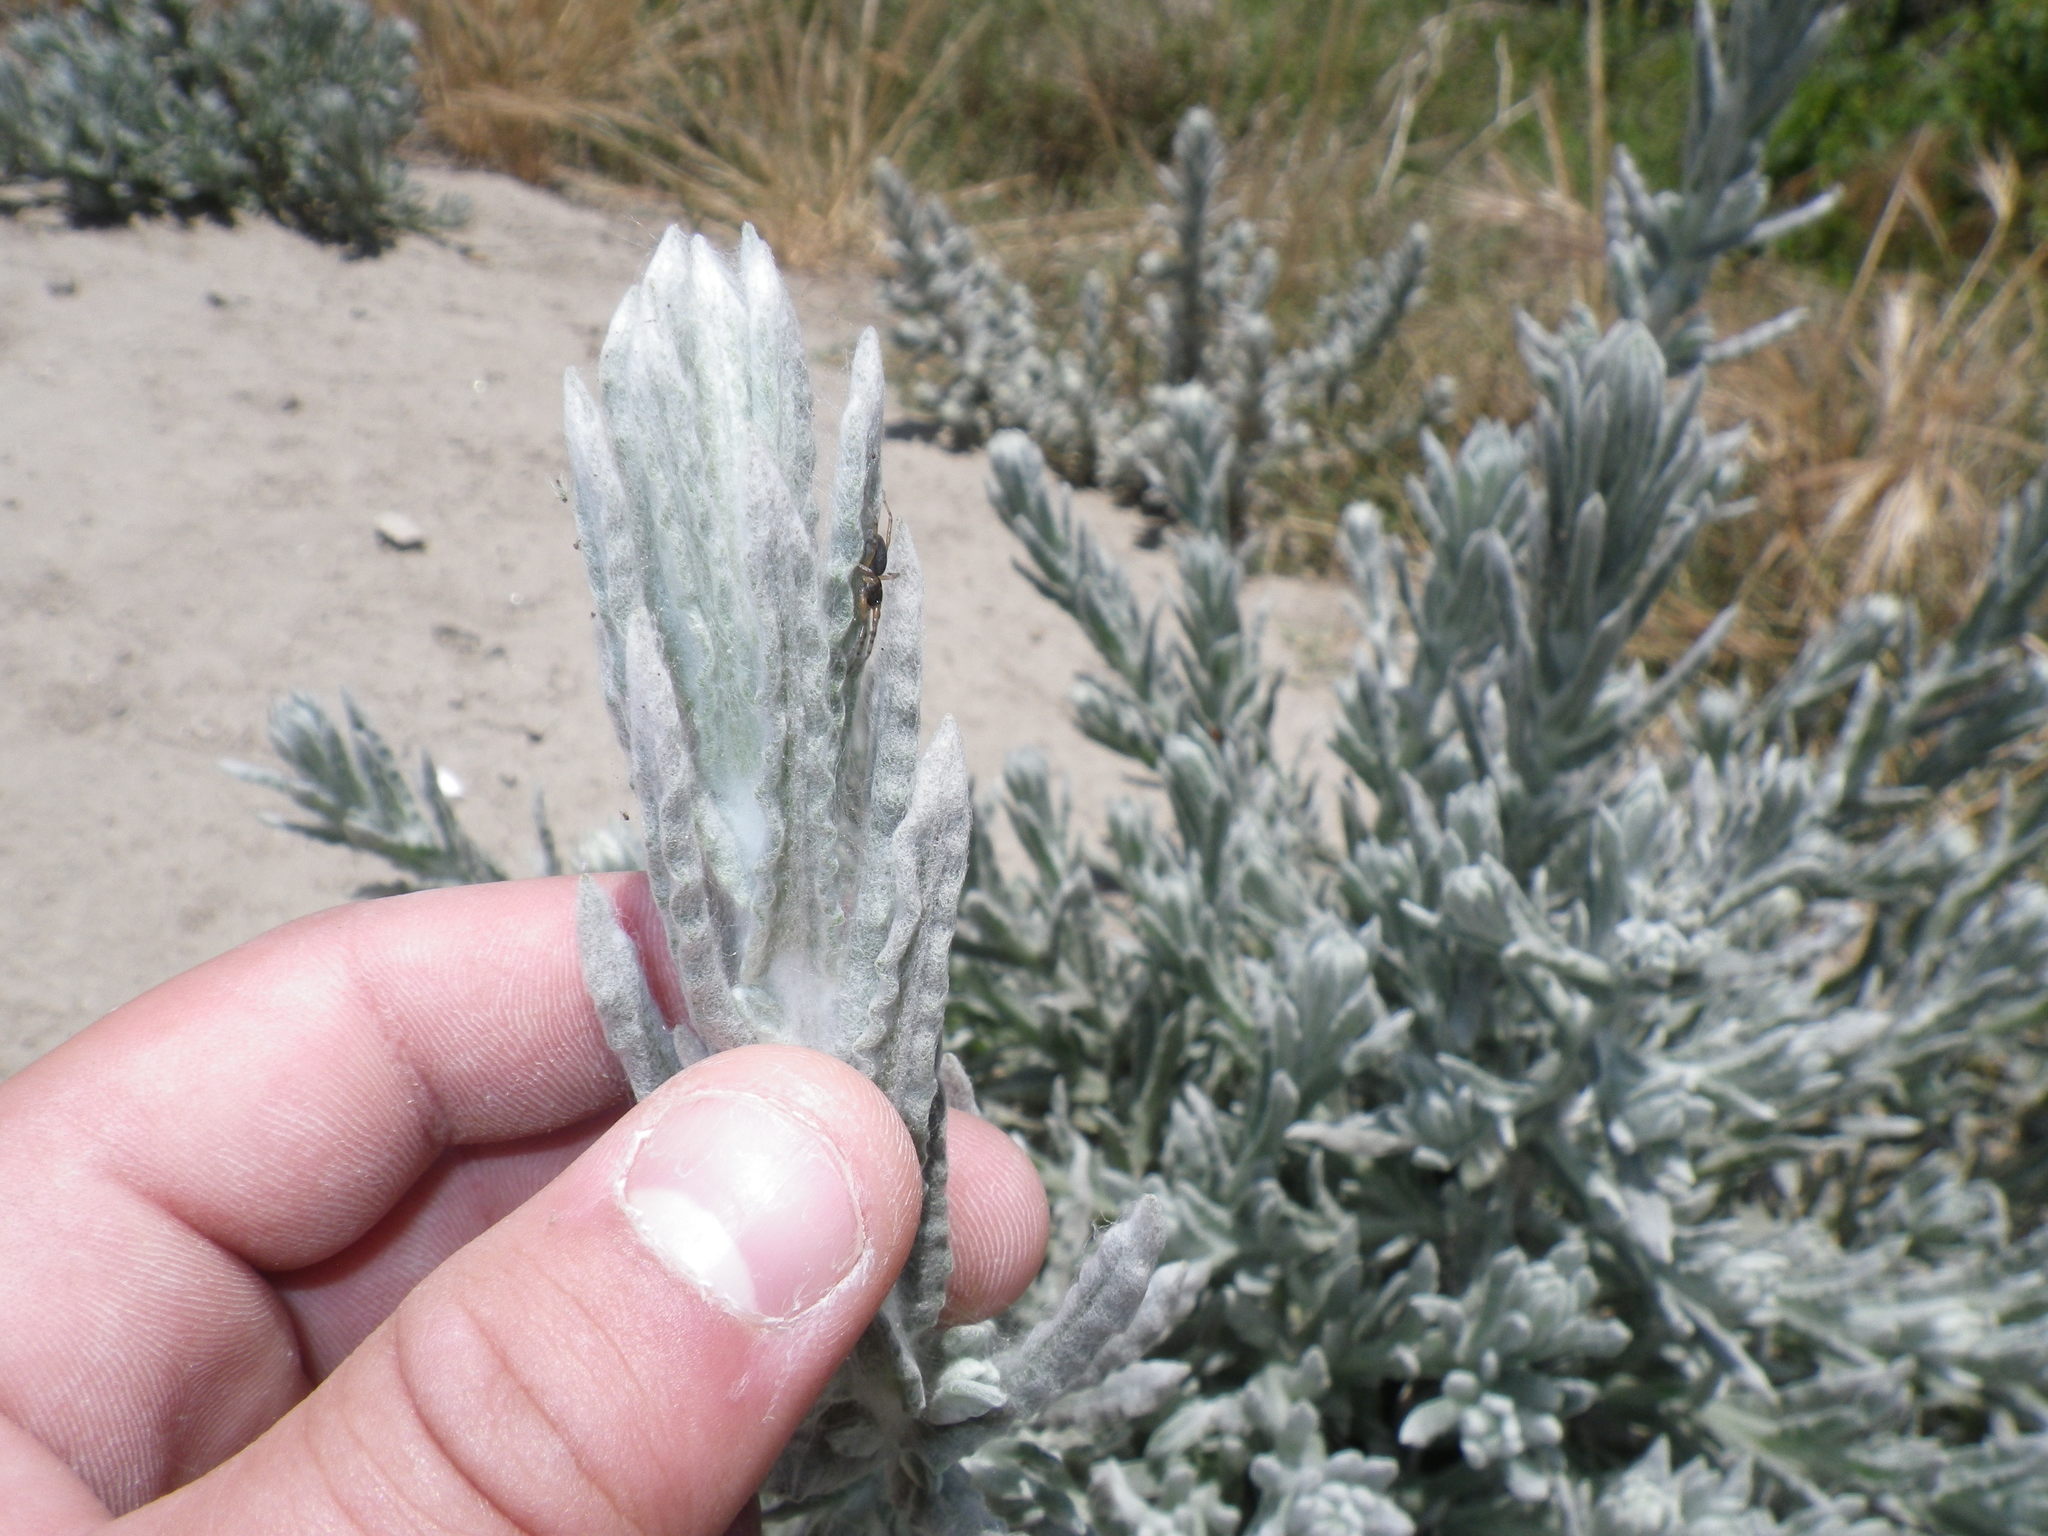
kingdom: Plantae
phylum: Tracheophyta
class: Magnoliopsida
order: Asterales
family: Asteraceae
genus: Pseudognaphalium
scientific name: Pseudognaphalium stramineum
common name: Cotton-batting-plant
